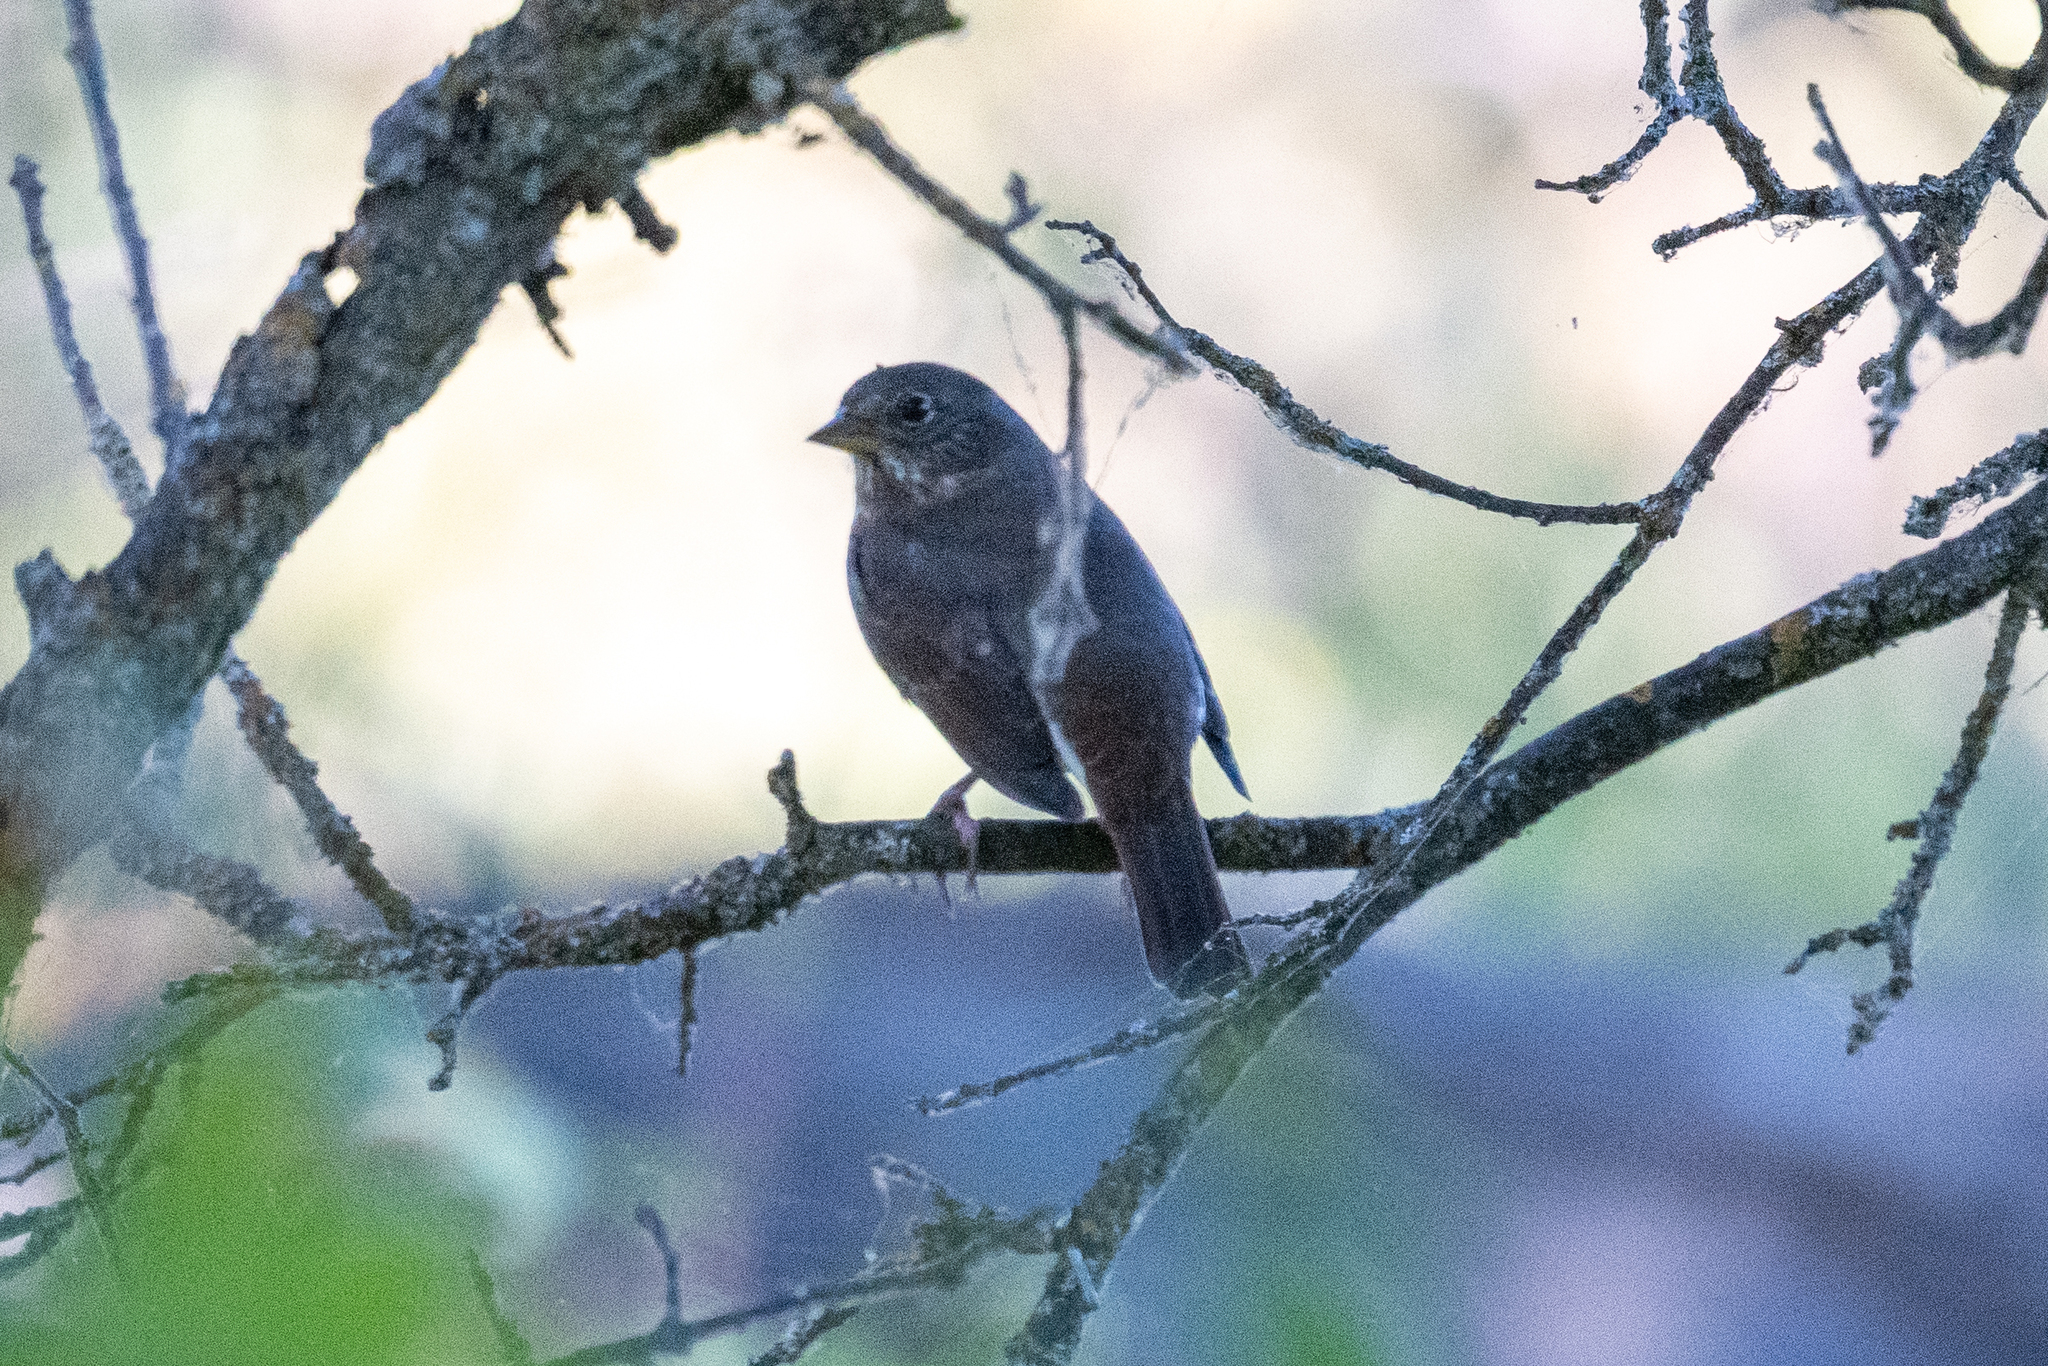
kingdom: Animalia
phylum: Chordata
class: Aves
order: Passeriformes
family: Passerellidae
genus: Passerella
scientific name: Passerella iliaca
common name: Fox sparrow
